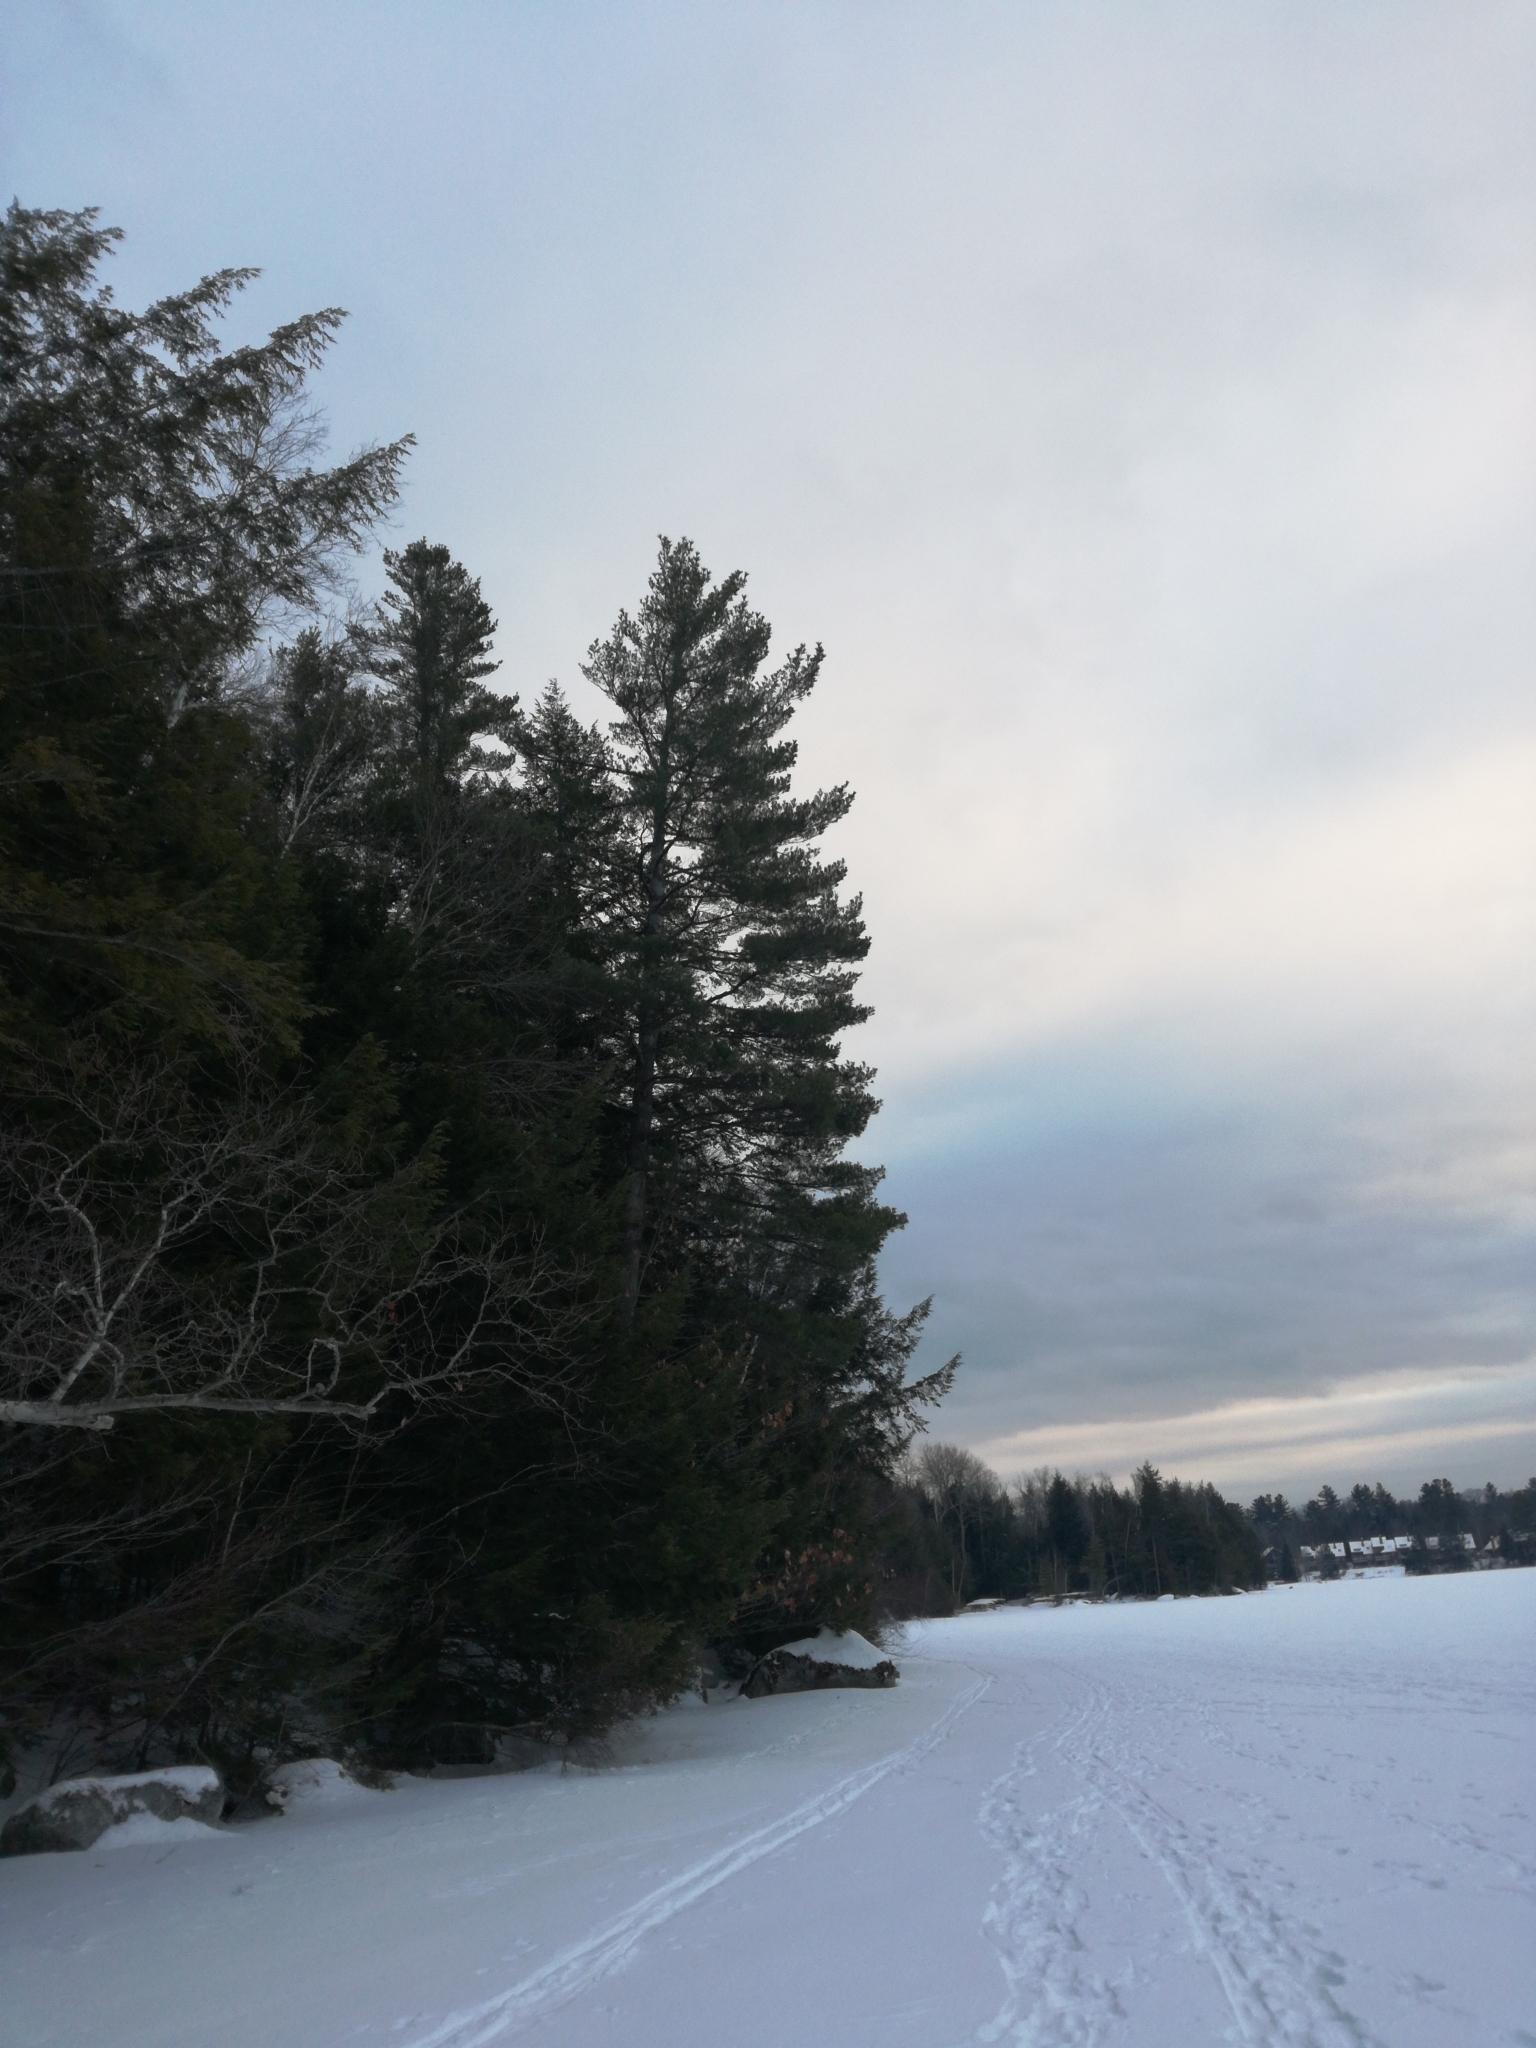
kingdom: Plantae
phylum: Tracheophyta
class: Pinopsida
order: Pinales
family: Pinaceae
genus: Pinus
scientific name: Pinus strobus
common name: Weymouth pine
